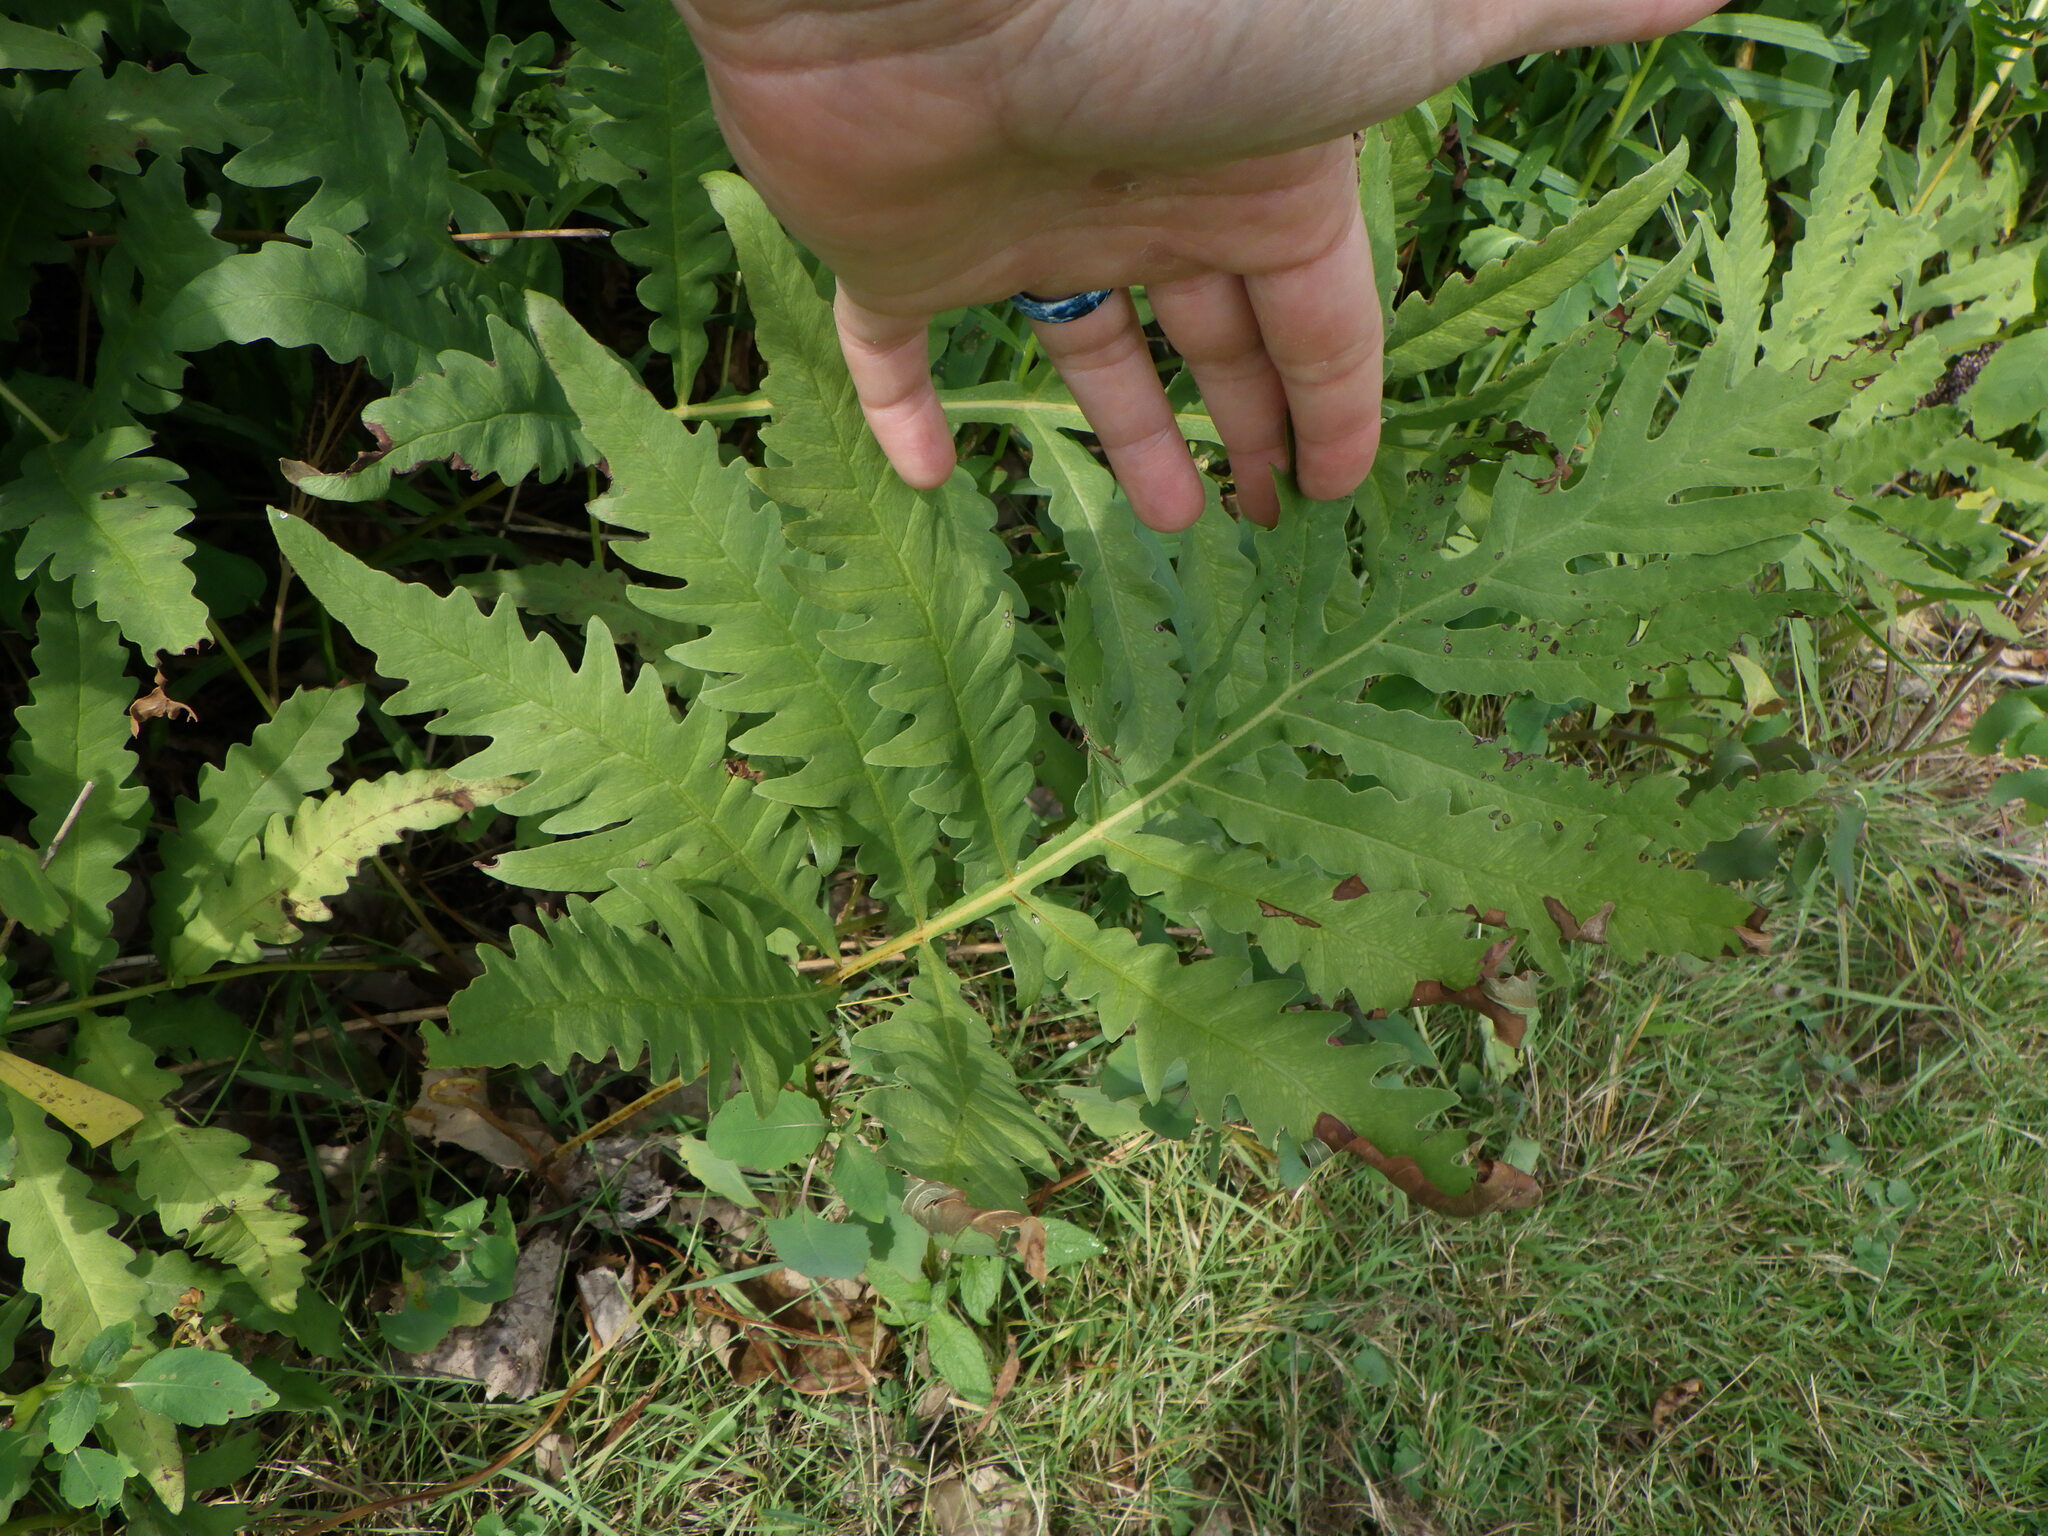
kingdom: Plantae
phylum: Tracheophyta
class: Polypodiopsida
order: Polypodiales
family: Onocleaceae
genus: Onoclea
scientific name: Onoclea sensibilis
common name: Sensitive fern
